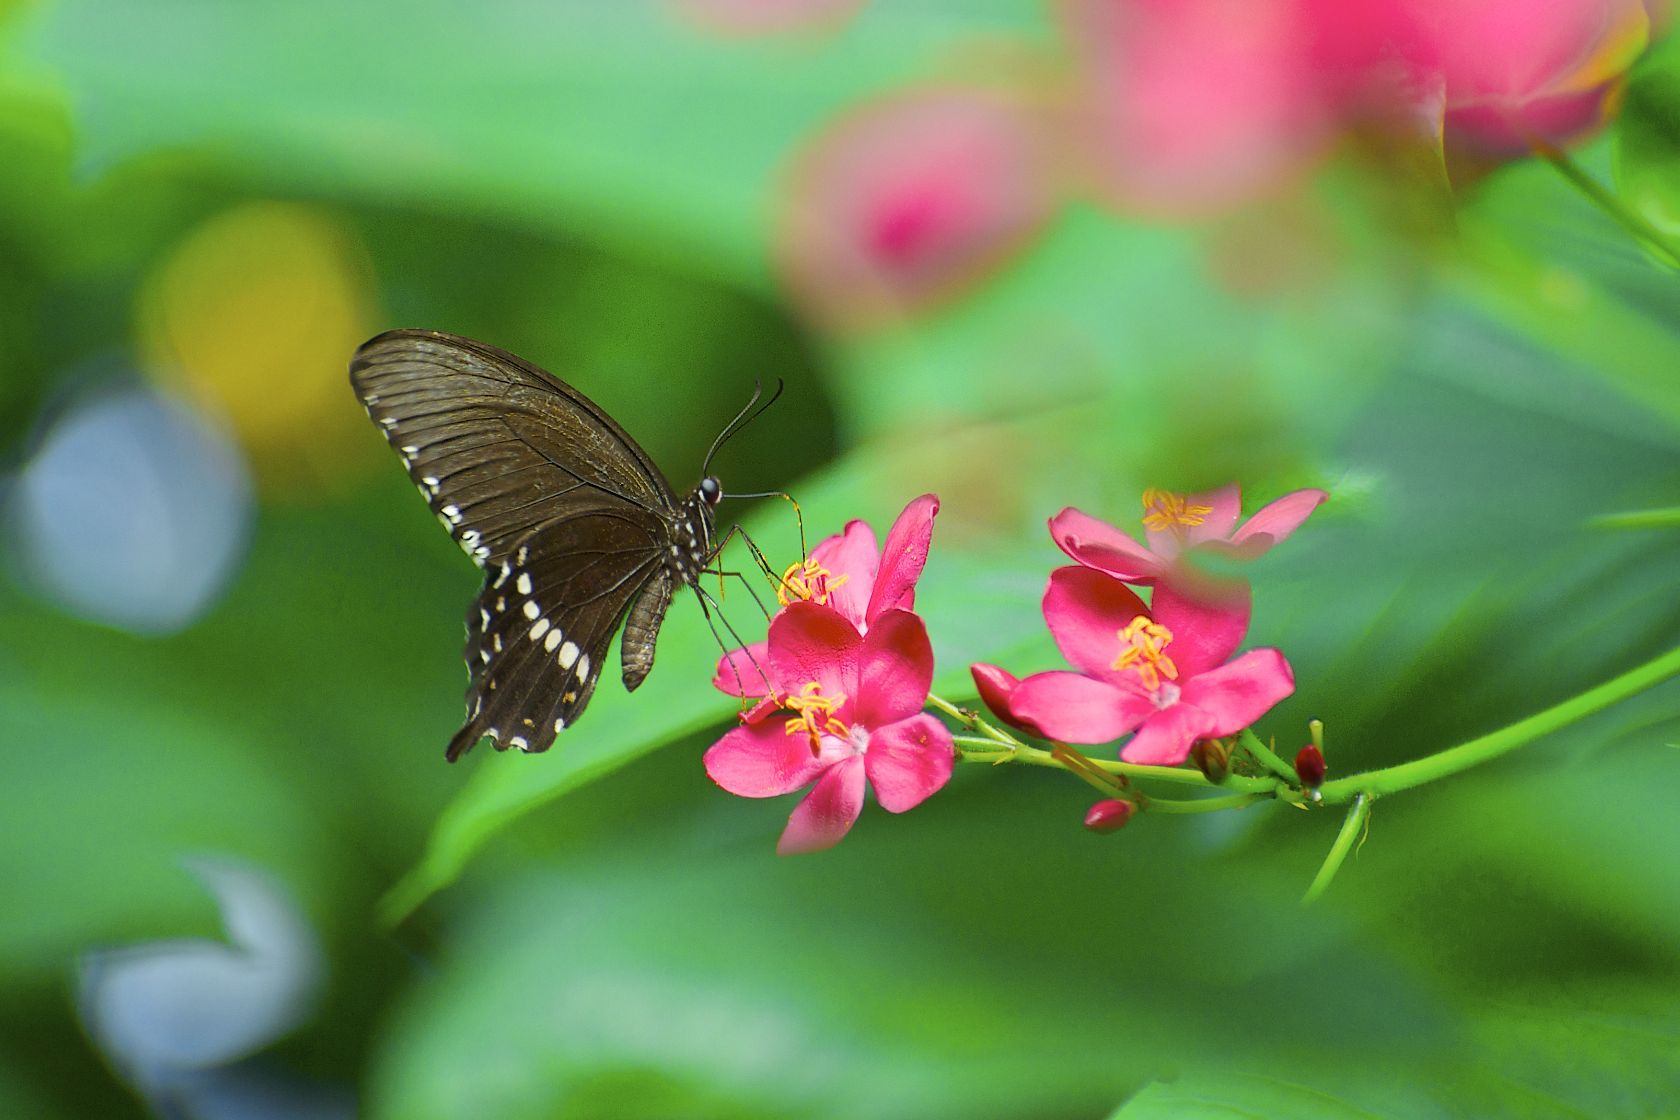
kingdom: Animalia
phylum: Arthropoda
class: Insecta
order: Lepidoptera
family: Papilionidae
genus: Papilio
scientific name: Papilio polytes
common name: Common mormon
